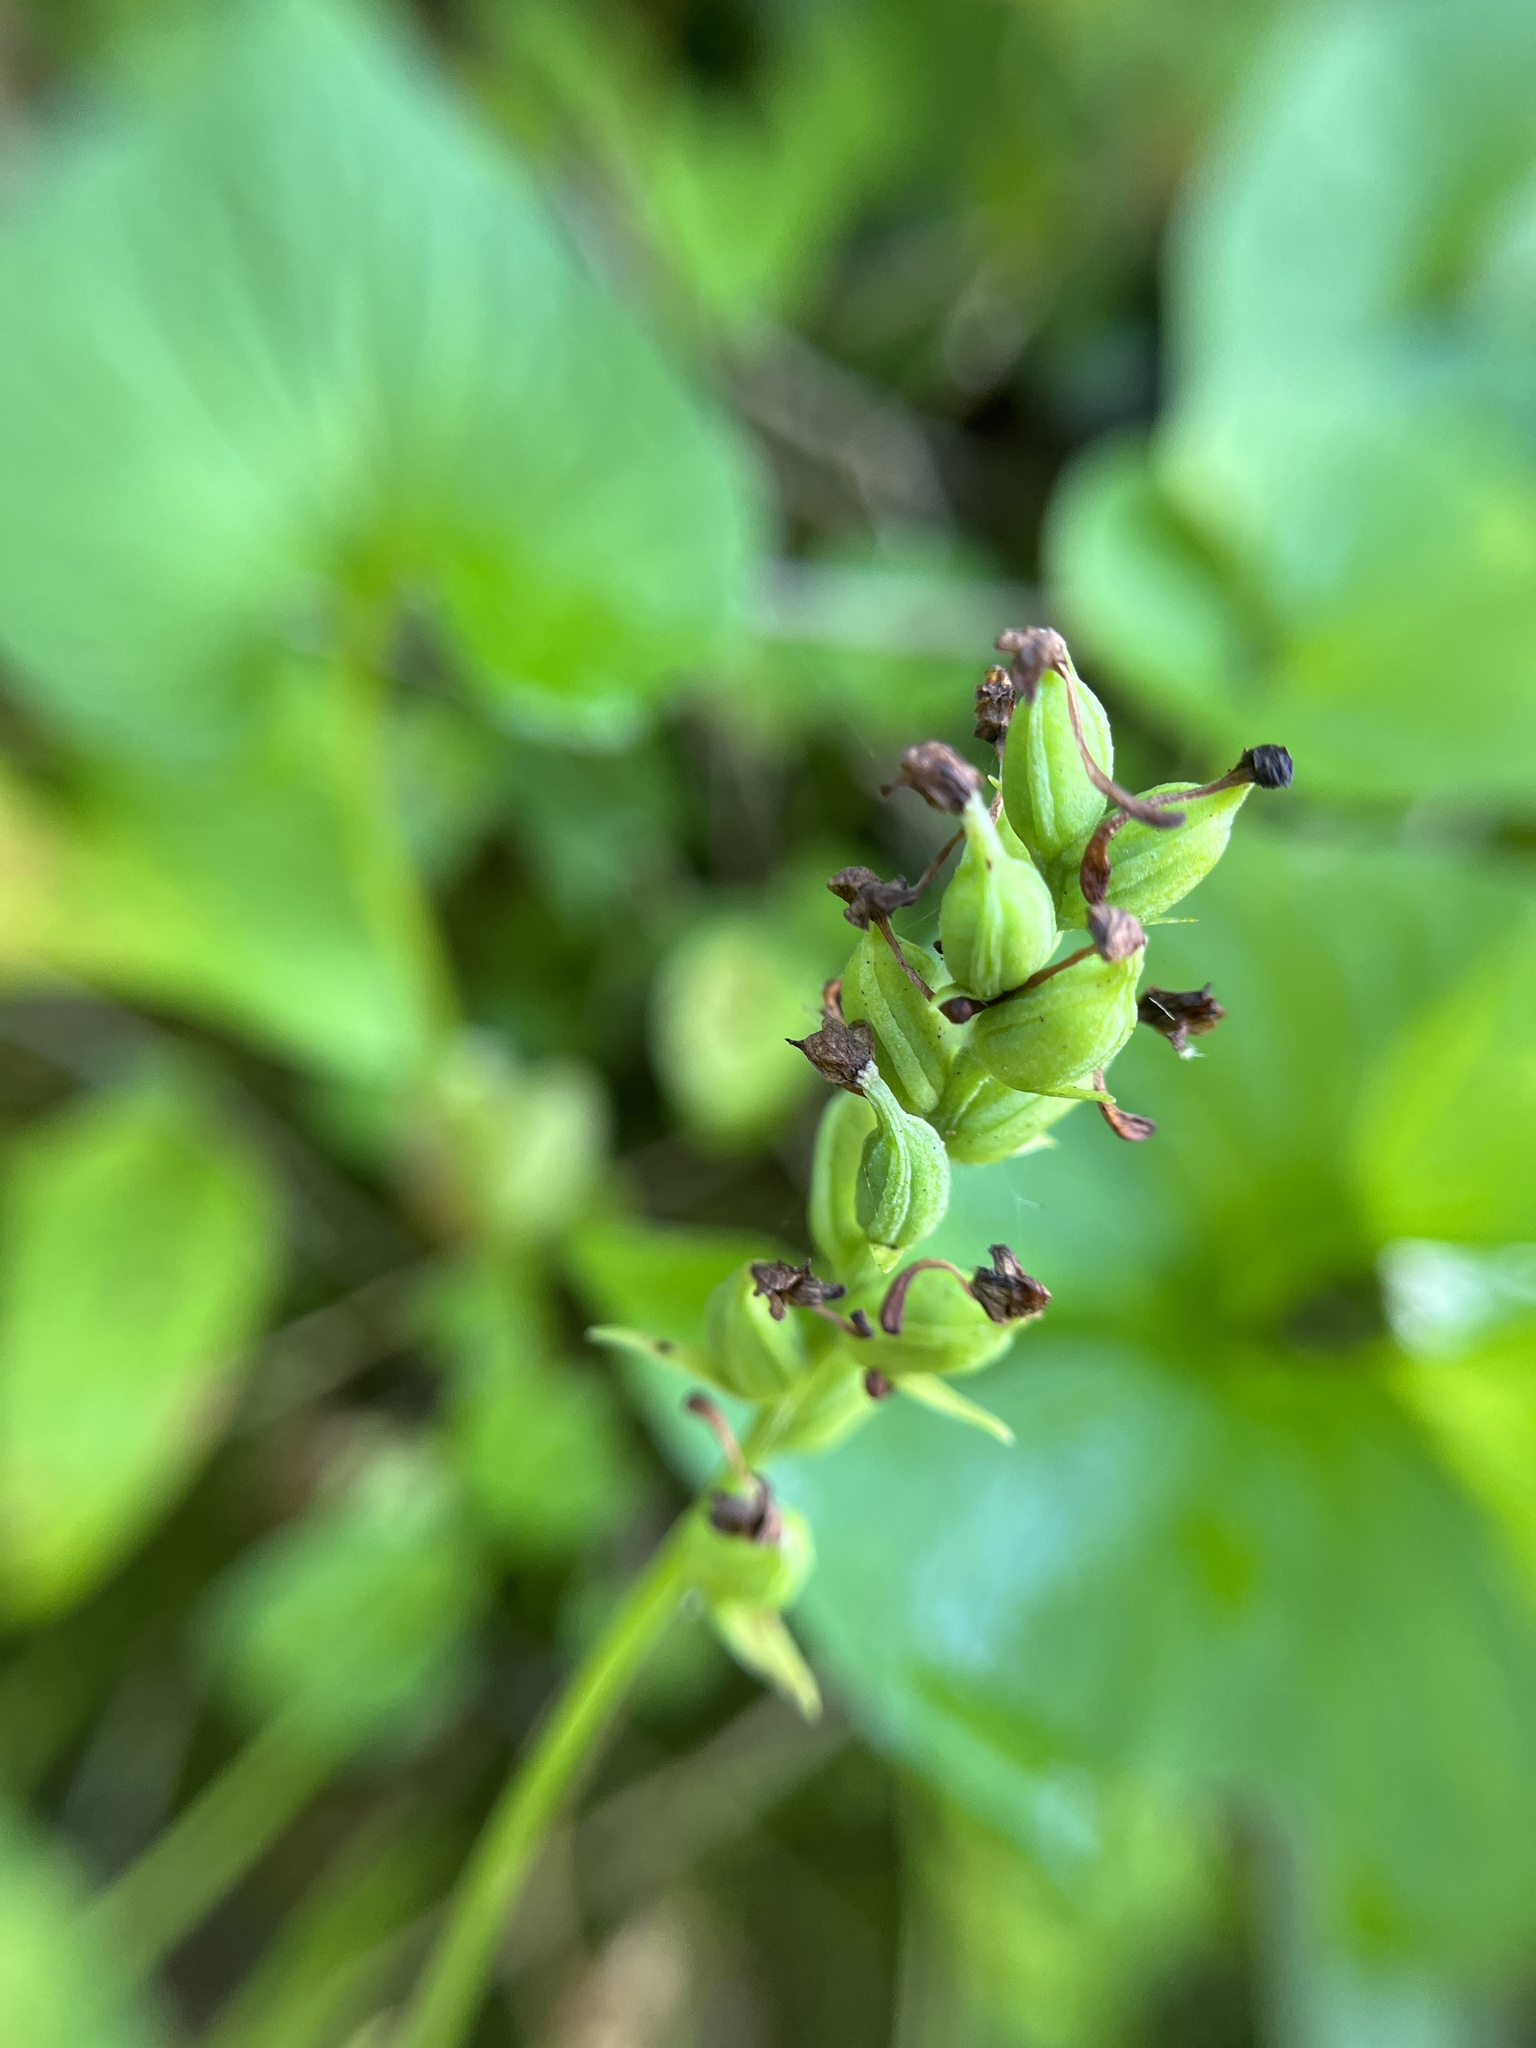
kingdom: Plantae
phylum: Tracheophyta
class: Liliopsida
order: Asparagales
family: Orchidaceae
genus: Platanthera
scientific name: Platanthera clavellata
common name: Club-spur orchid
